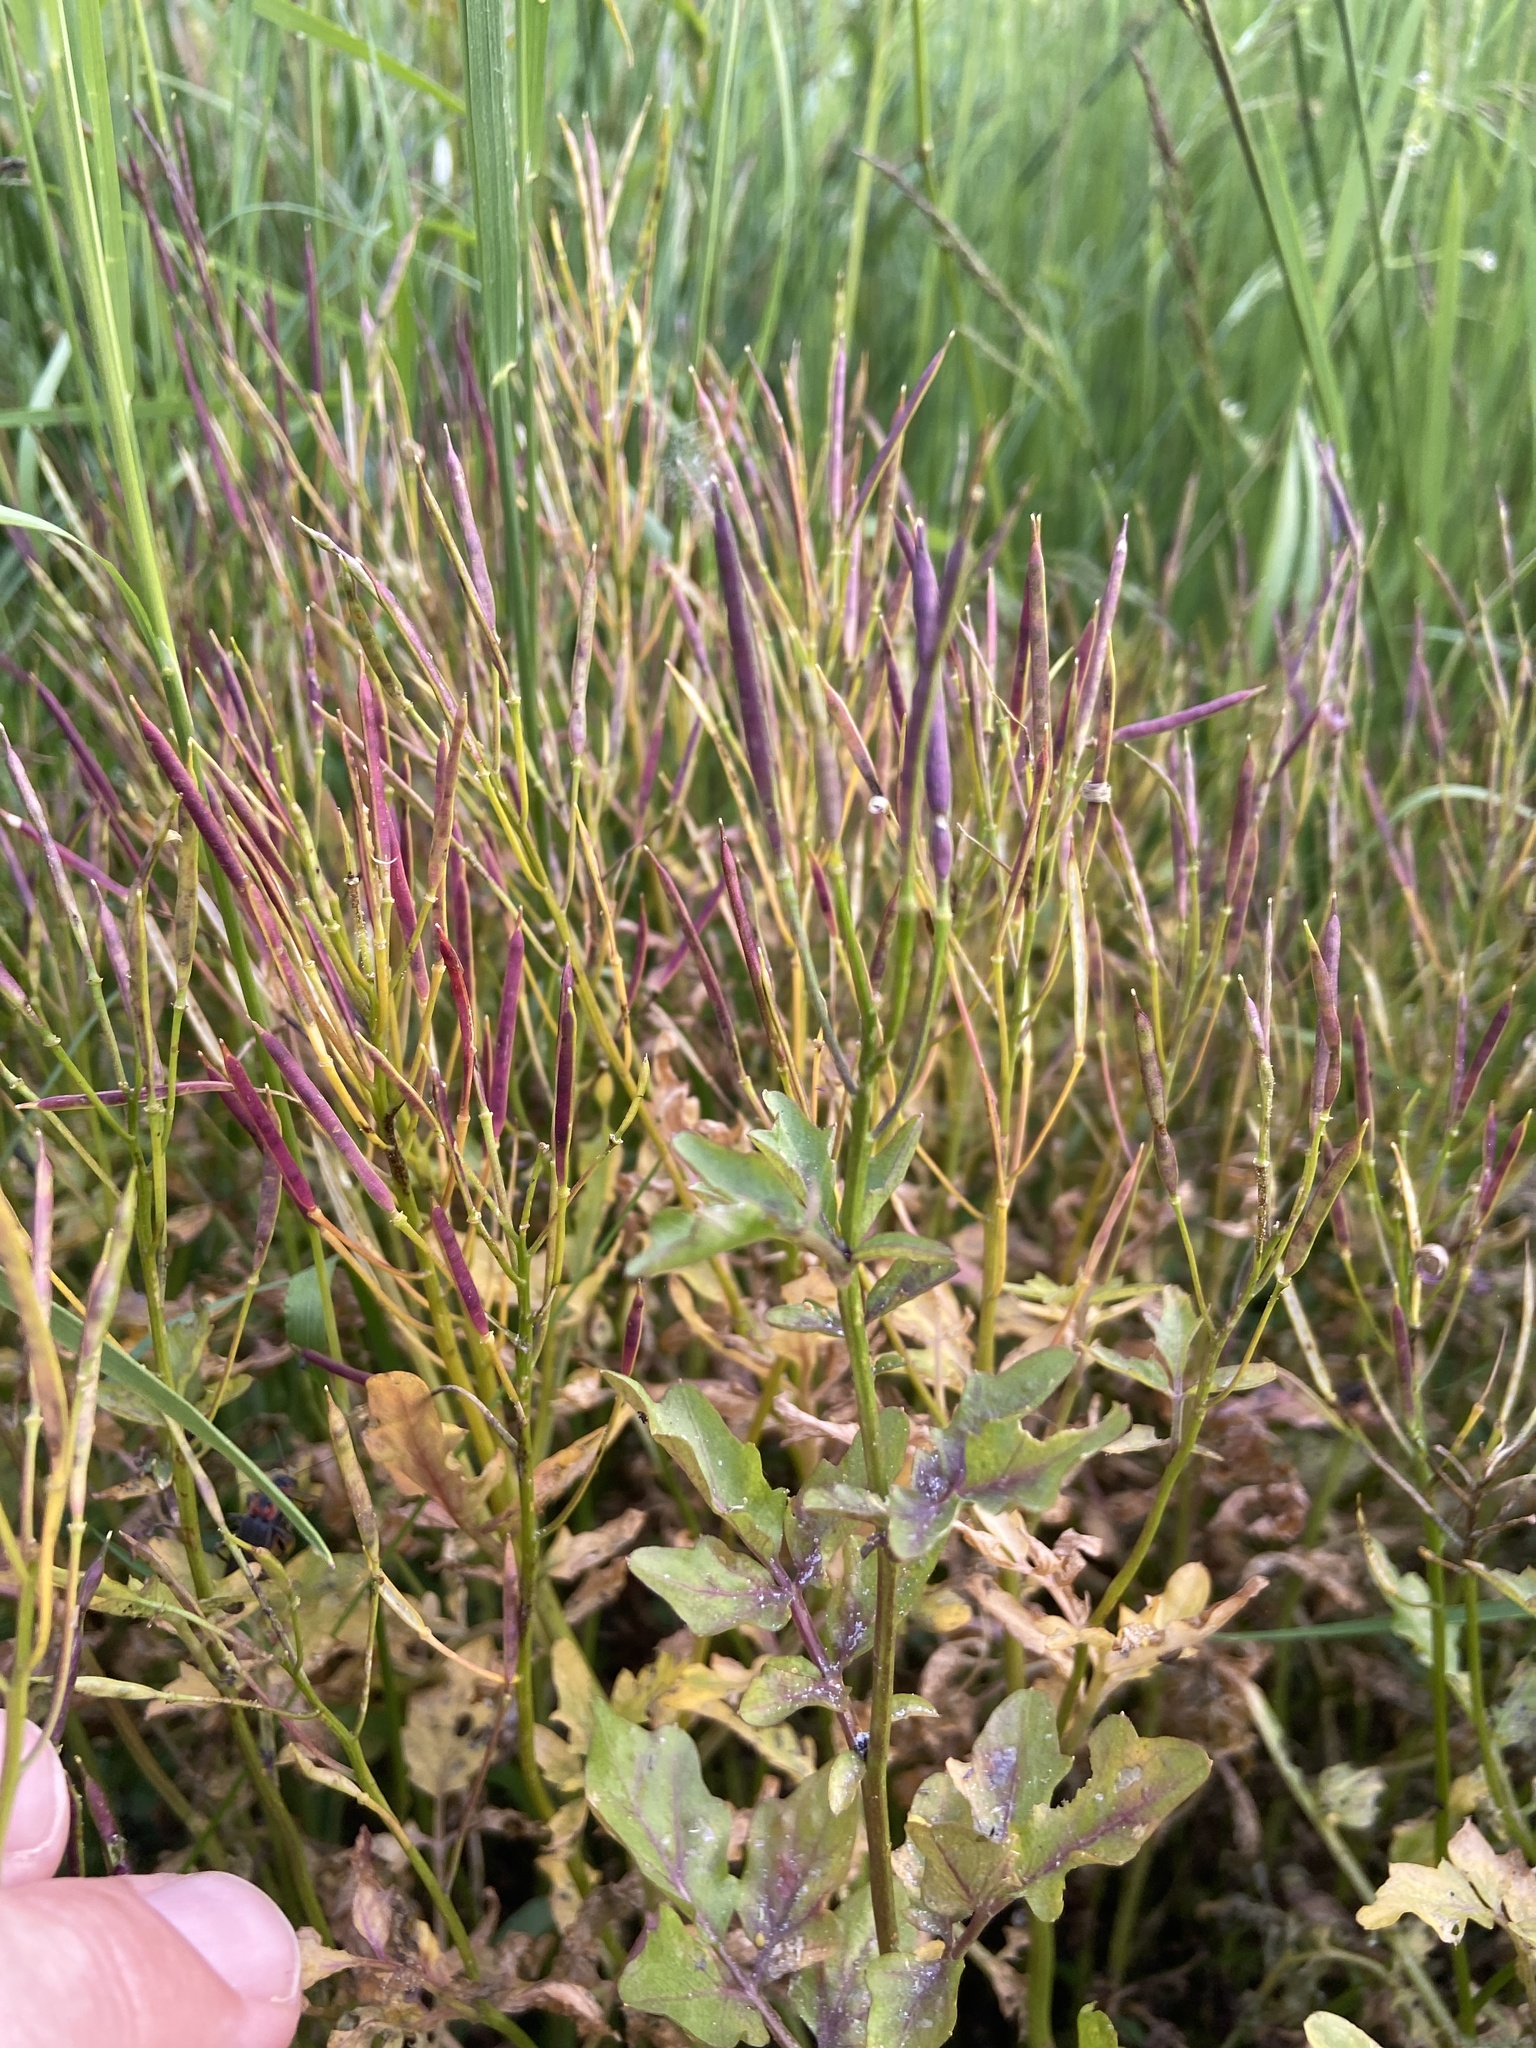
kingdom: Plantae
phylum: Tracheophyta
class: Magnoliopsida
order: Brassicales
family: Brassicaceae
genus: Cardamine
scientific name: Cardamine amara
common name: Large bitter-cress
